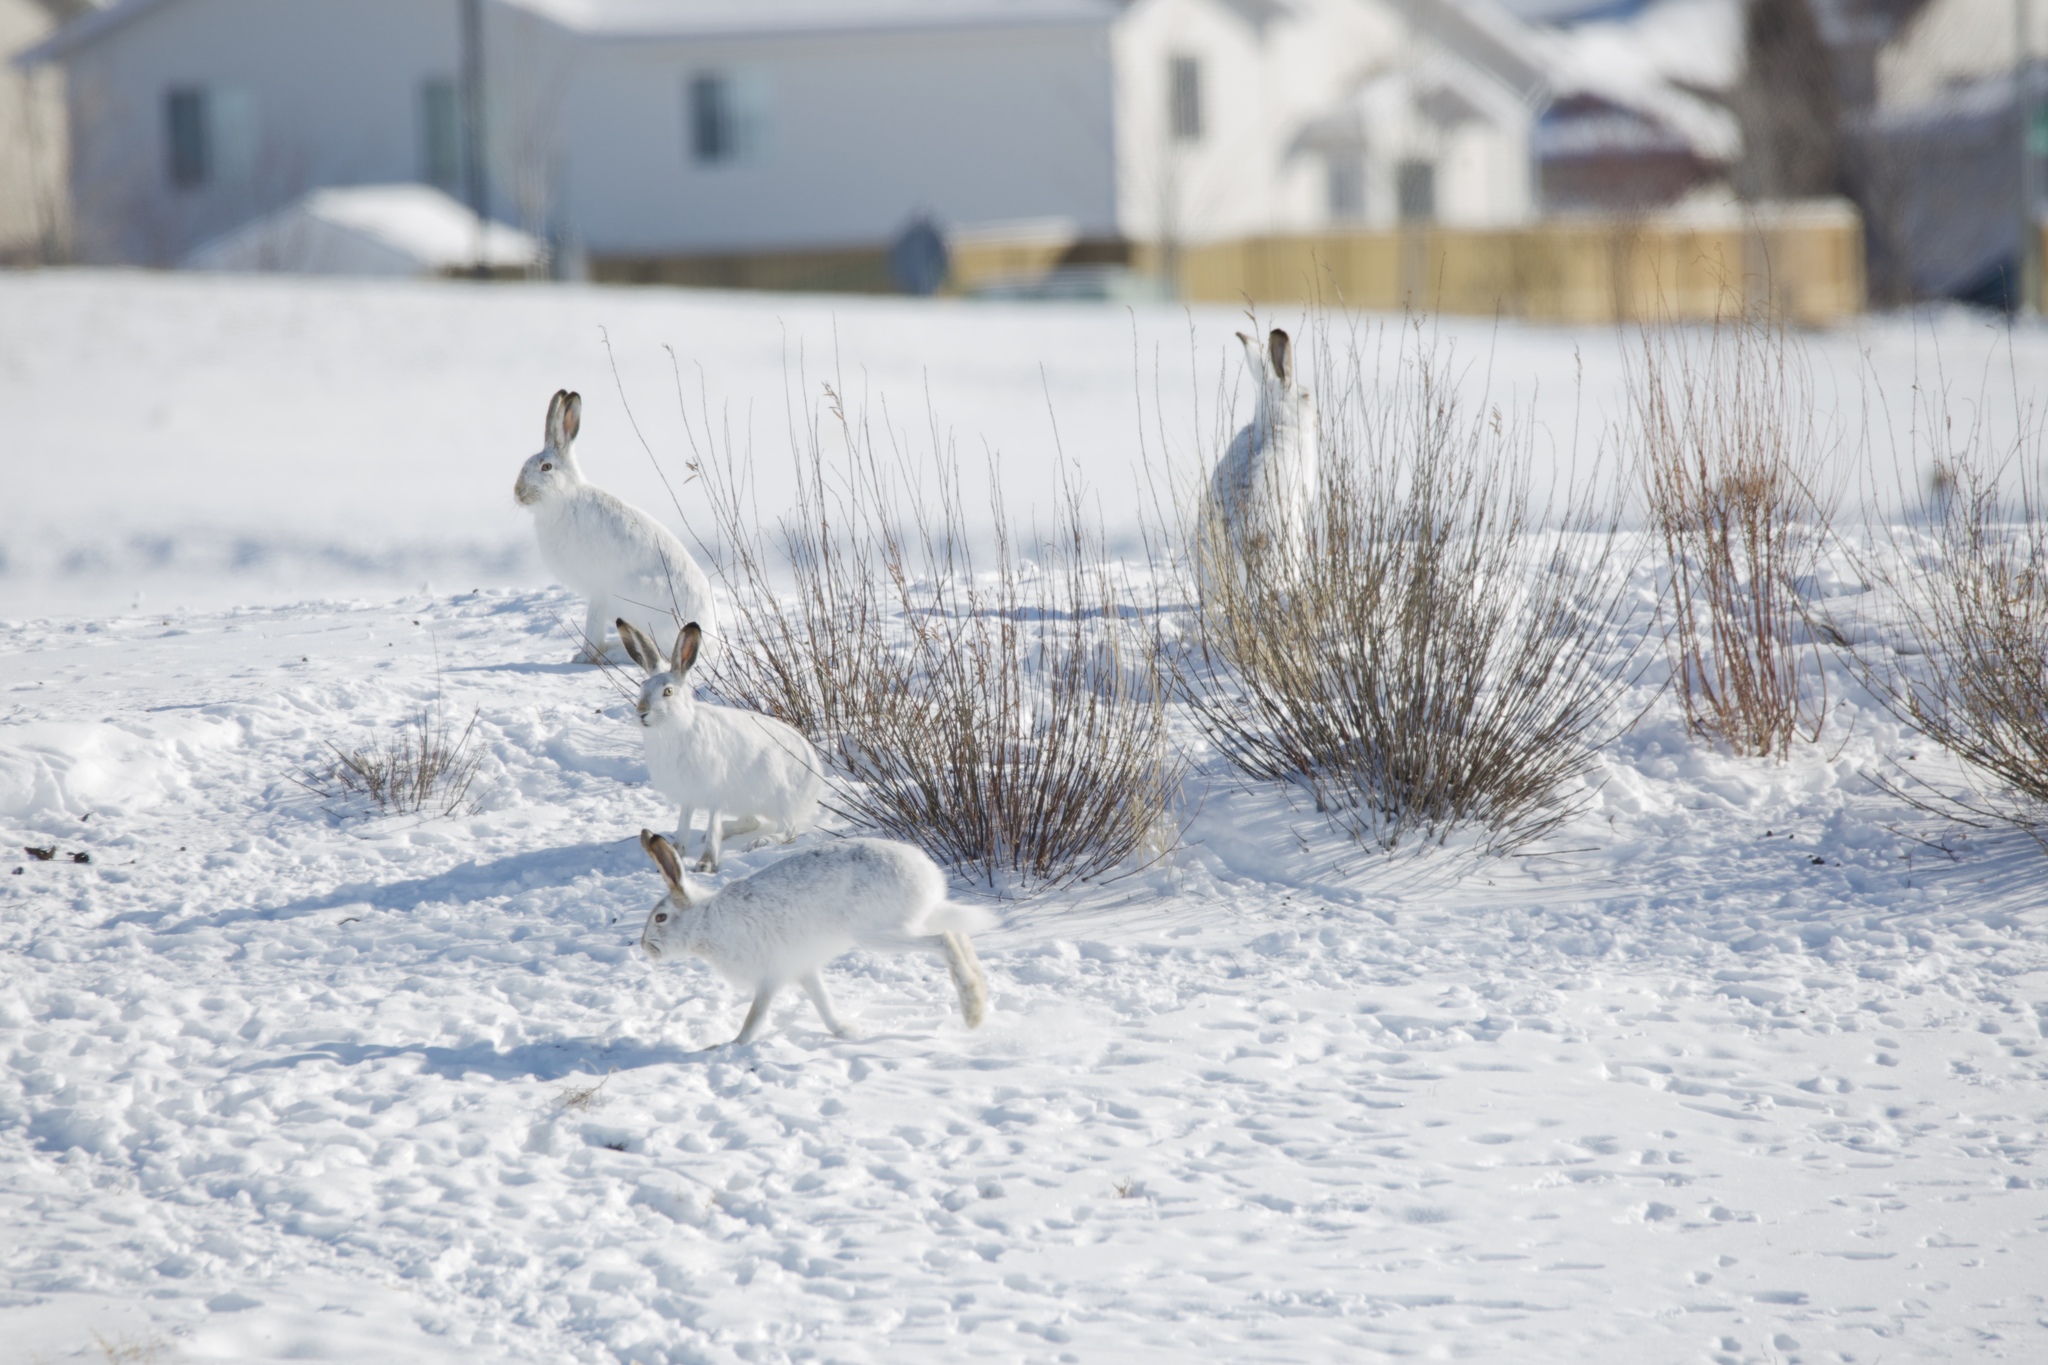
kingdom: Animalia
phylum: Chordata
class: Mammalia
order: Lagomorpha
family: Leporidae
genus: Lepus
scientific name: Lepus townsendii
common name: White-tailed jackrabbit
